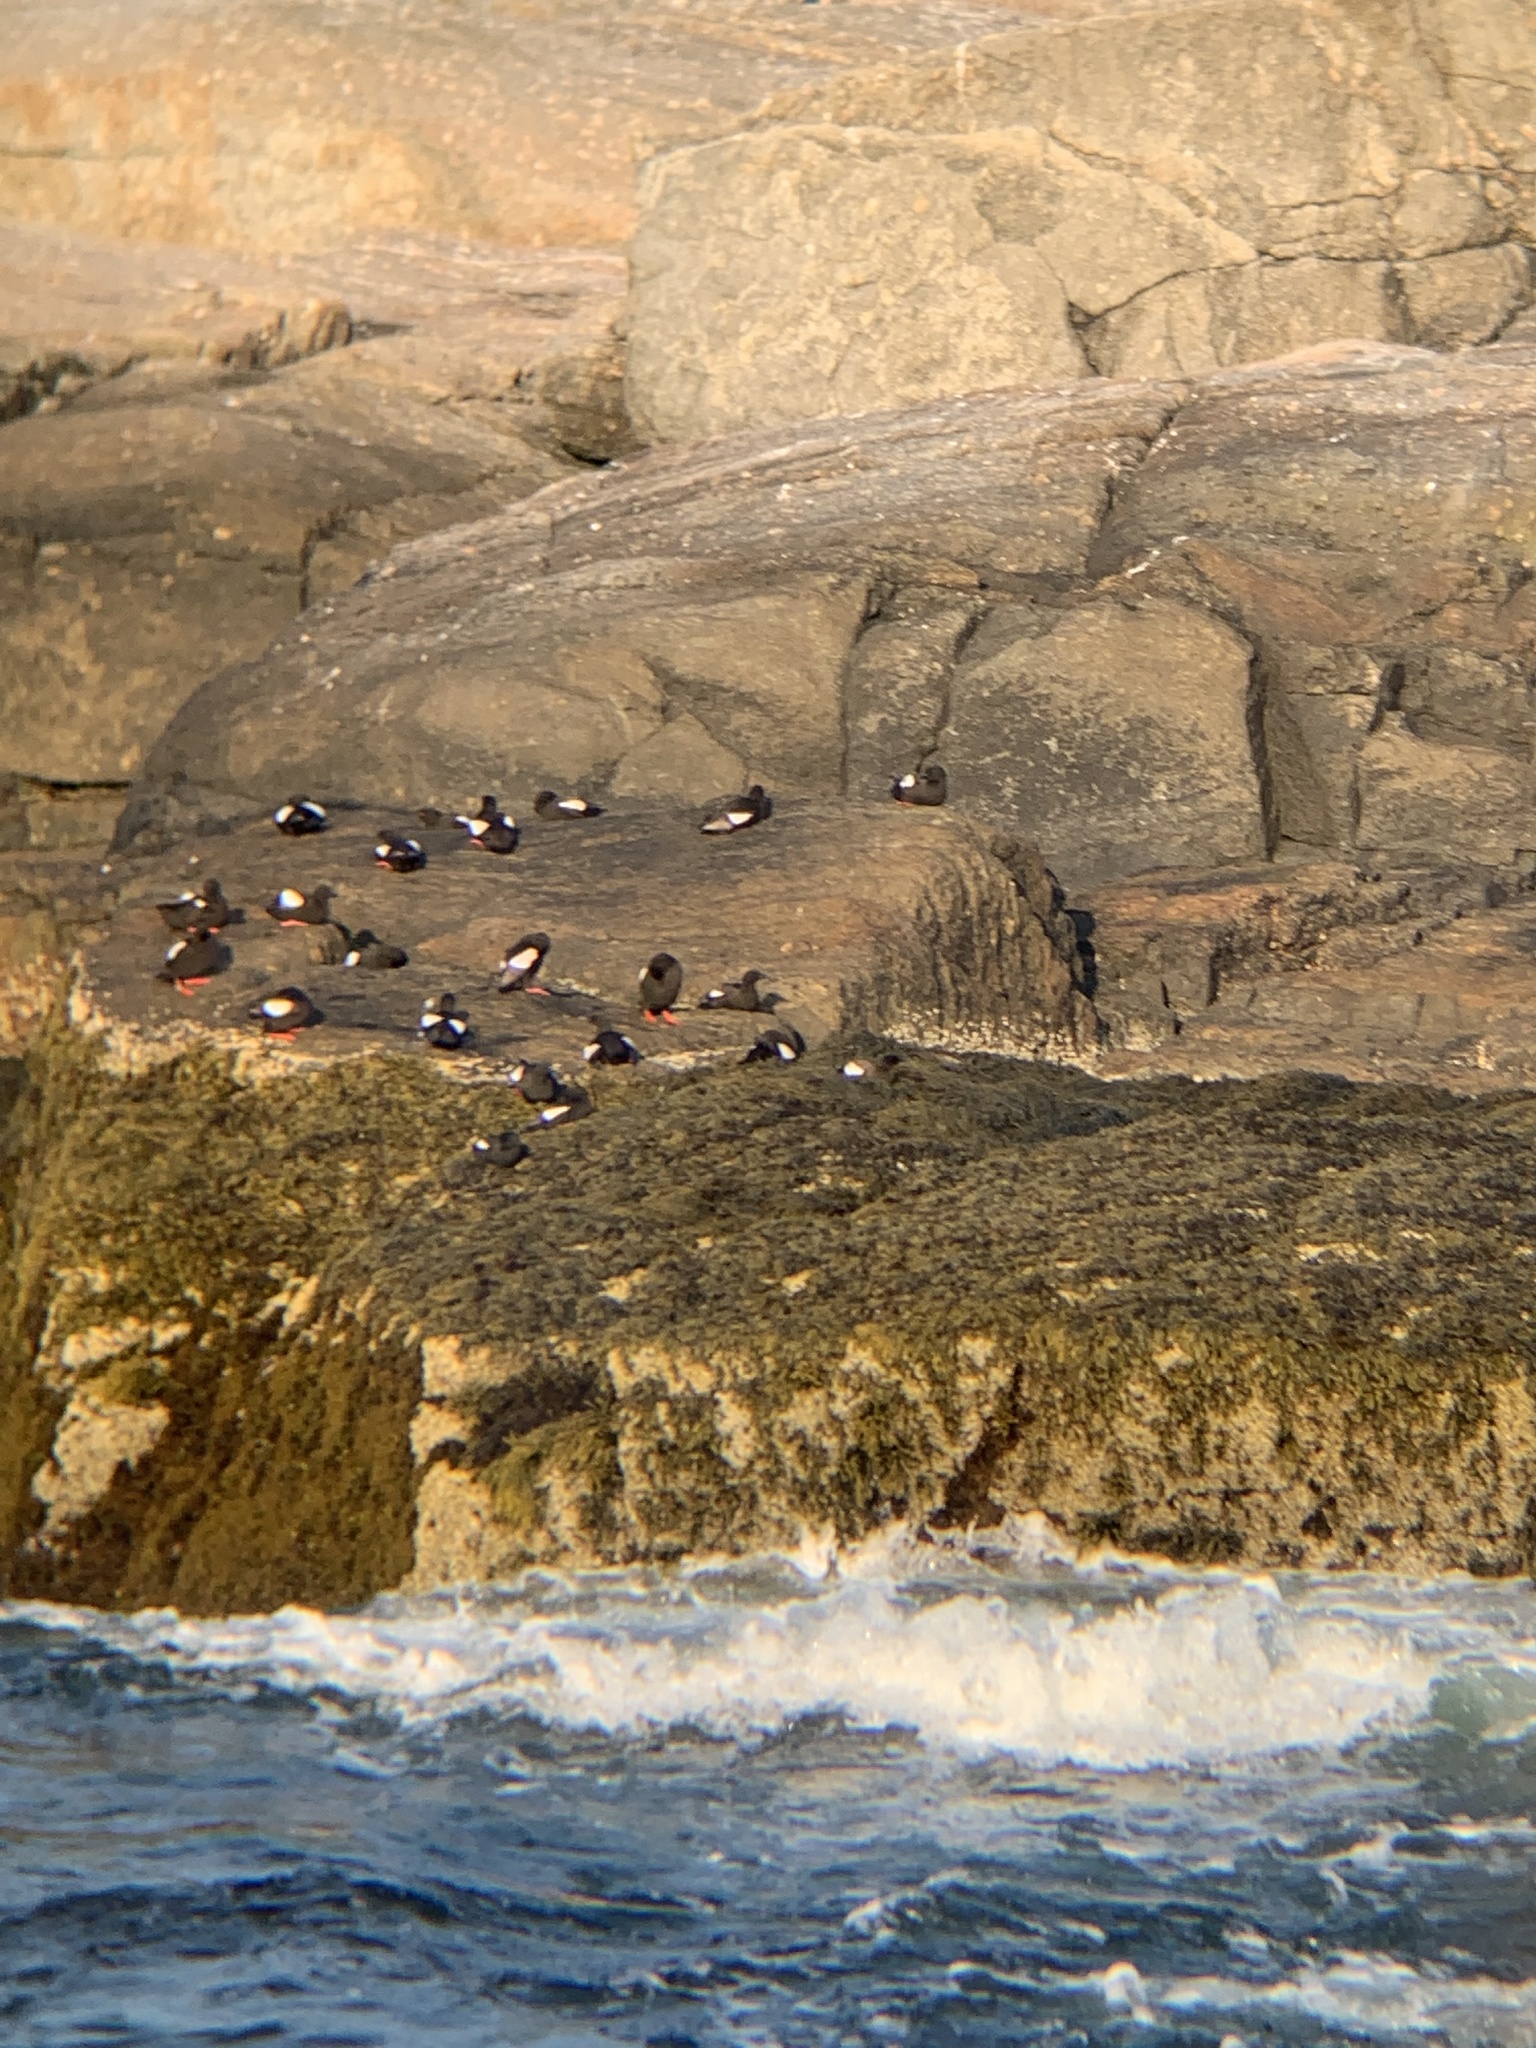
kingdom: Animalia
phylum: Chordata
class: Aves
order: Charadriiformes
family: Alcidae
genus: Cepphus
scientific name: Cepphus grylle
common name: Black guillemot
